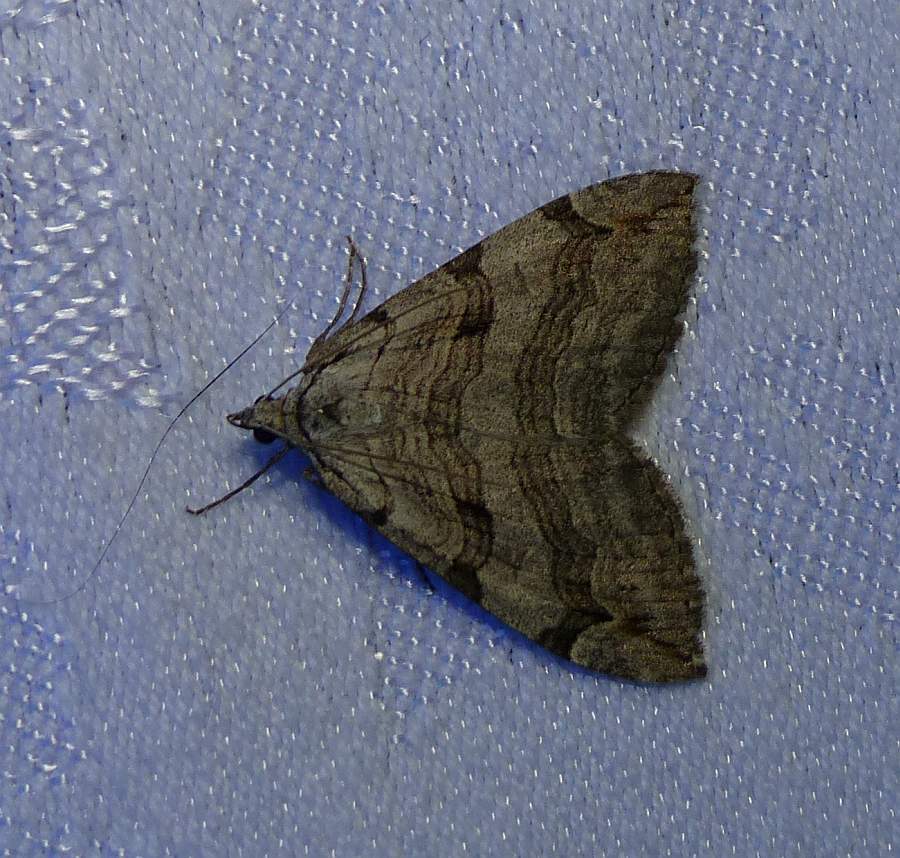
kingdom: Animalia
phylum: Arthropoda
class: Insecta
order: Lepidoptera
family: Geometridae
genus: Aplocera
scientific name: Aplocera plagiata
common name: Treble-bar
